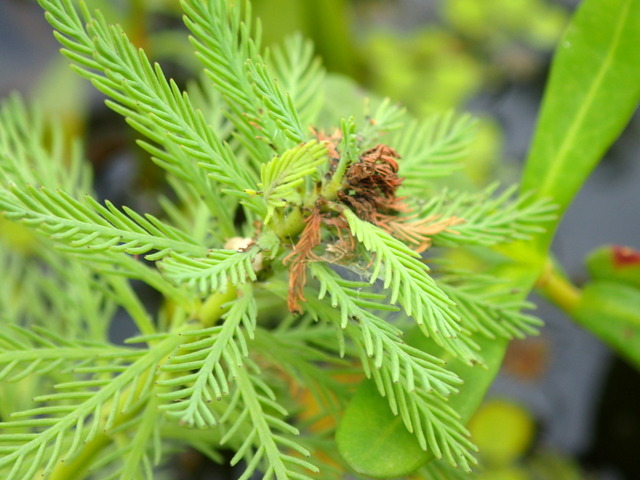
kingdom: Plantae
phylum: Tracheophyta
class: Magnoliopsida
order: Saxifragales
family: Haloragaceae
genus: Myriophyllum
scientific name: Myriophyllum aquaticum
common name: Parrot's feather
